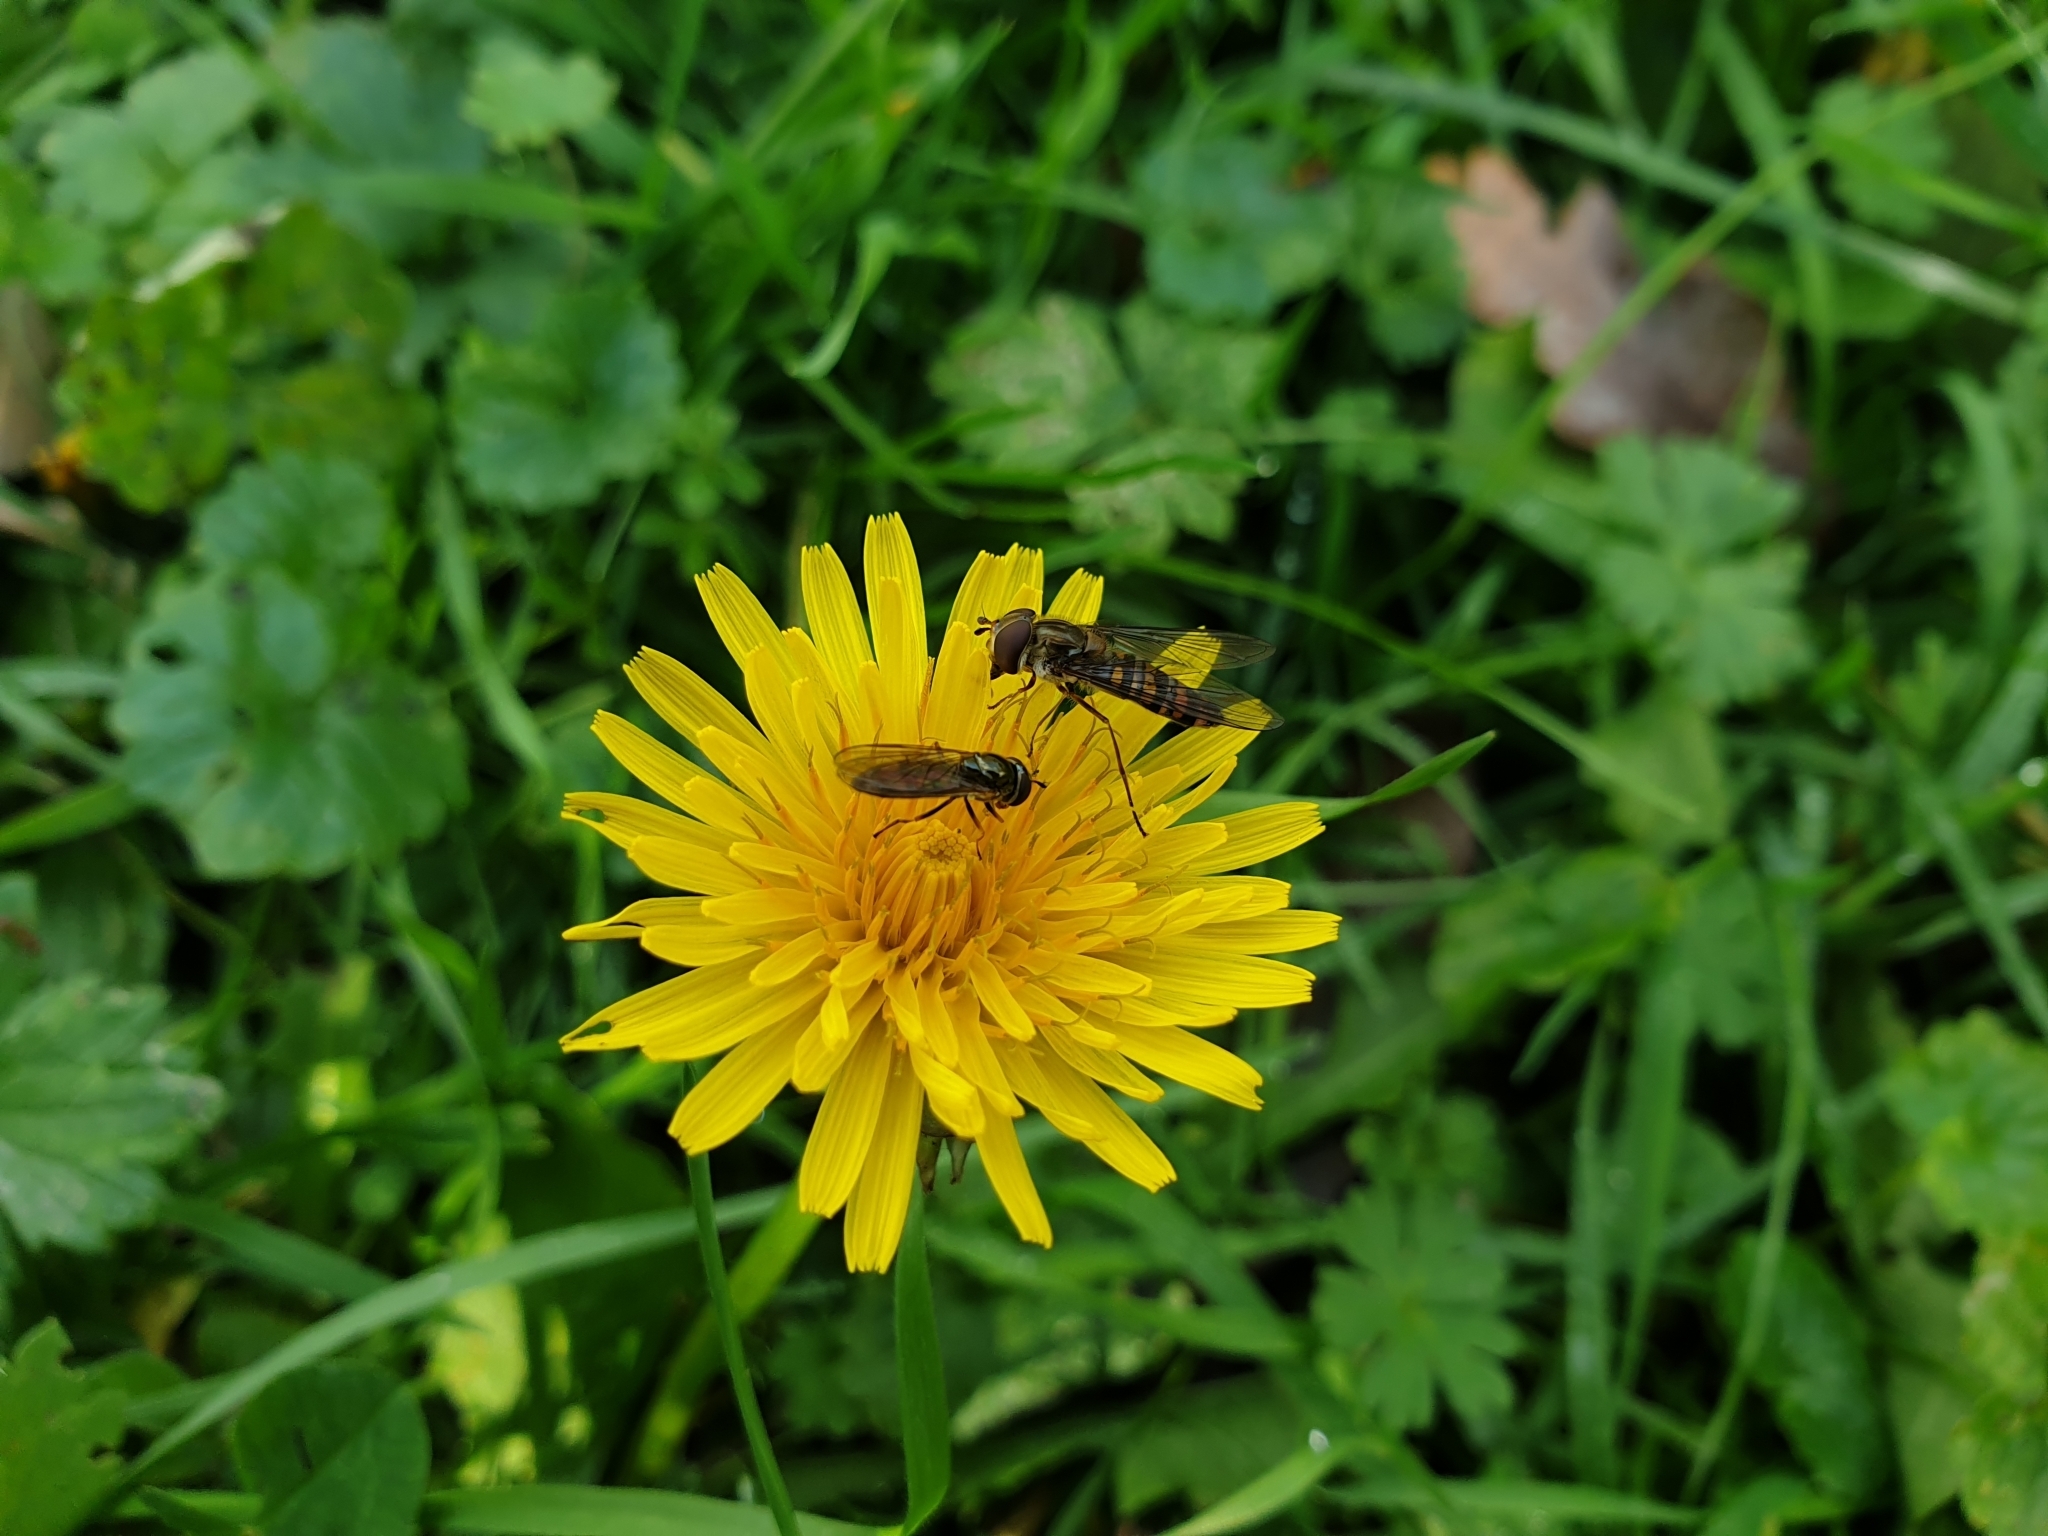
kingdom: Animalia
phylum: Arthropoda
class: Insecta
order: Diptera
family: Syrphidae
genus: Episyrphus
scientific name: Episyrphus balteatus
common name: Marmalade hoverfly
